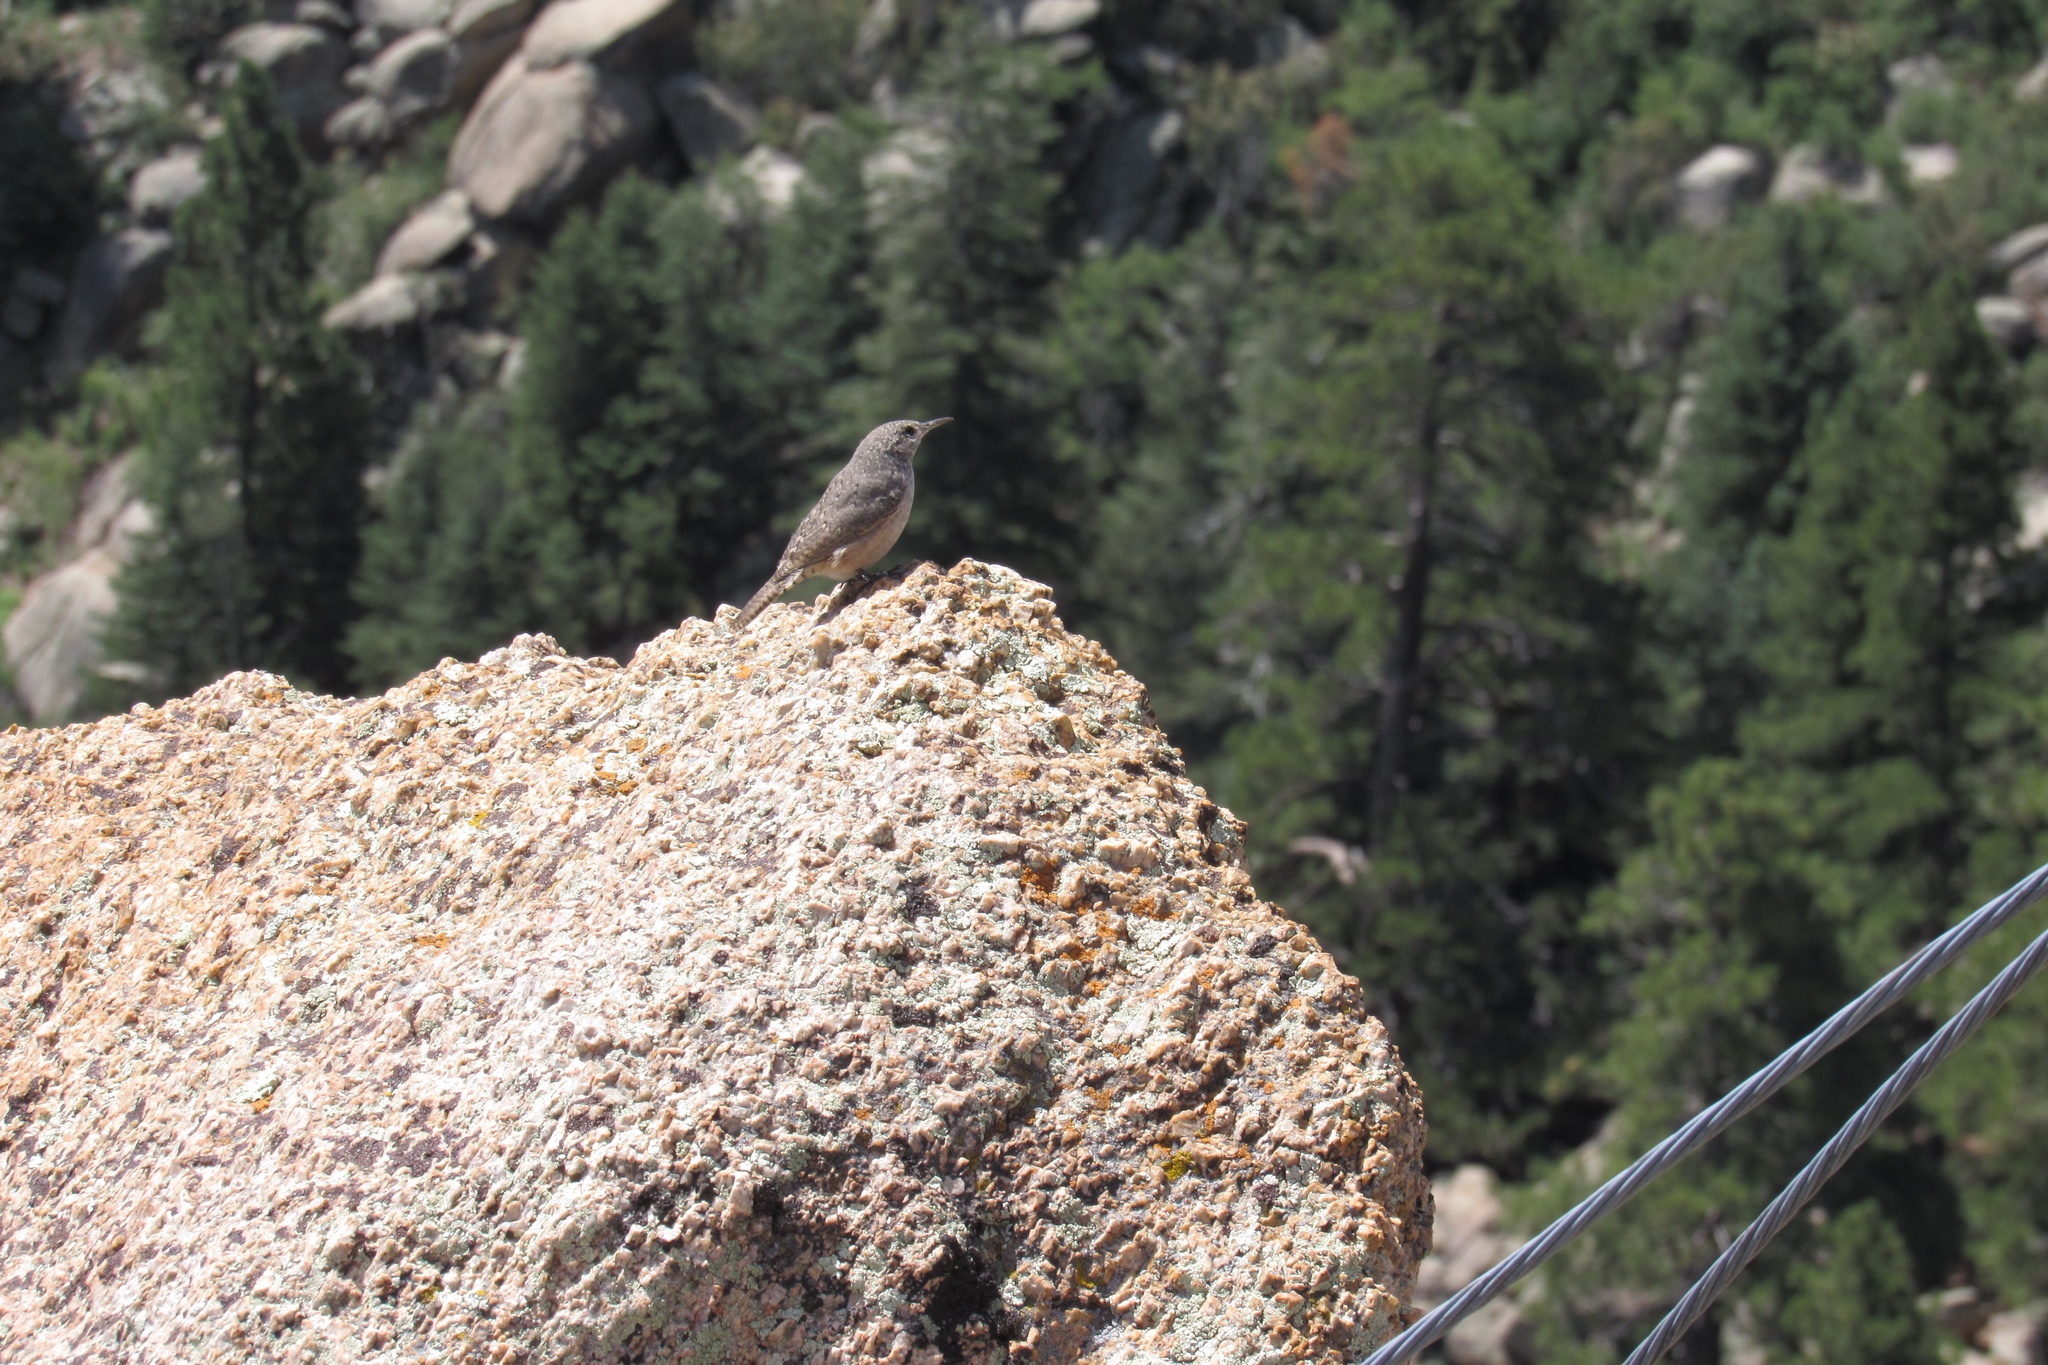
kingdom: Animalia
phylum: Chordata
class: Aves
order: Passeriformes
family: Troglodytidae
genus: Salpinctes
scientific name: Salpinctes obsoletus
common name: Rock wren
